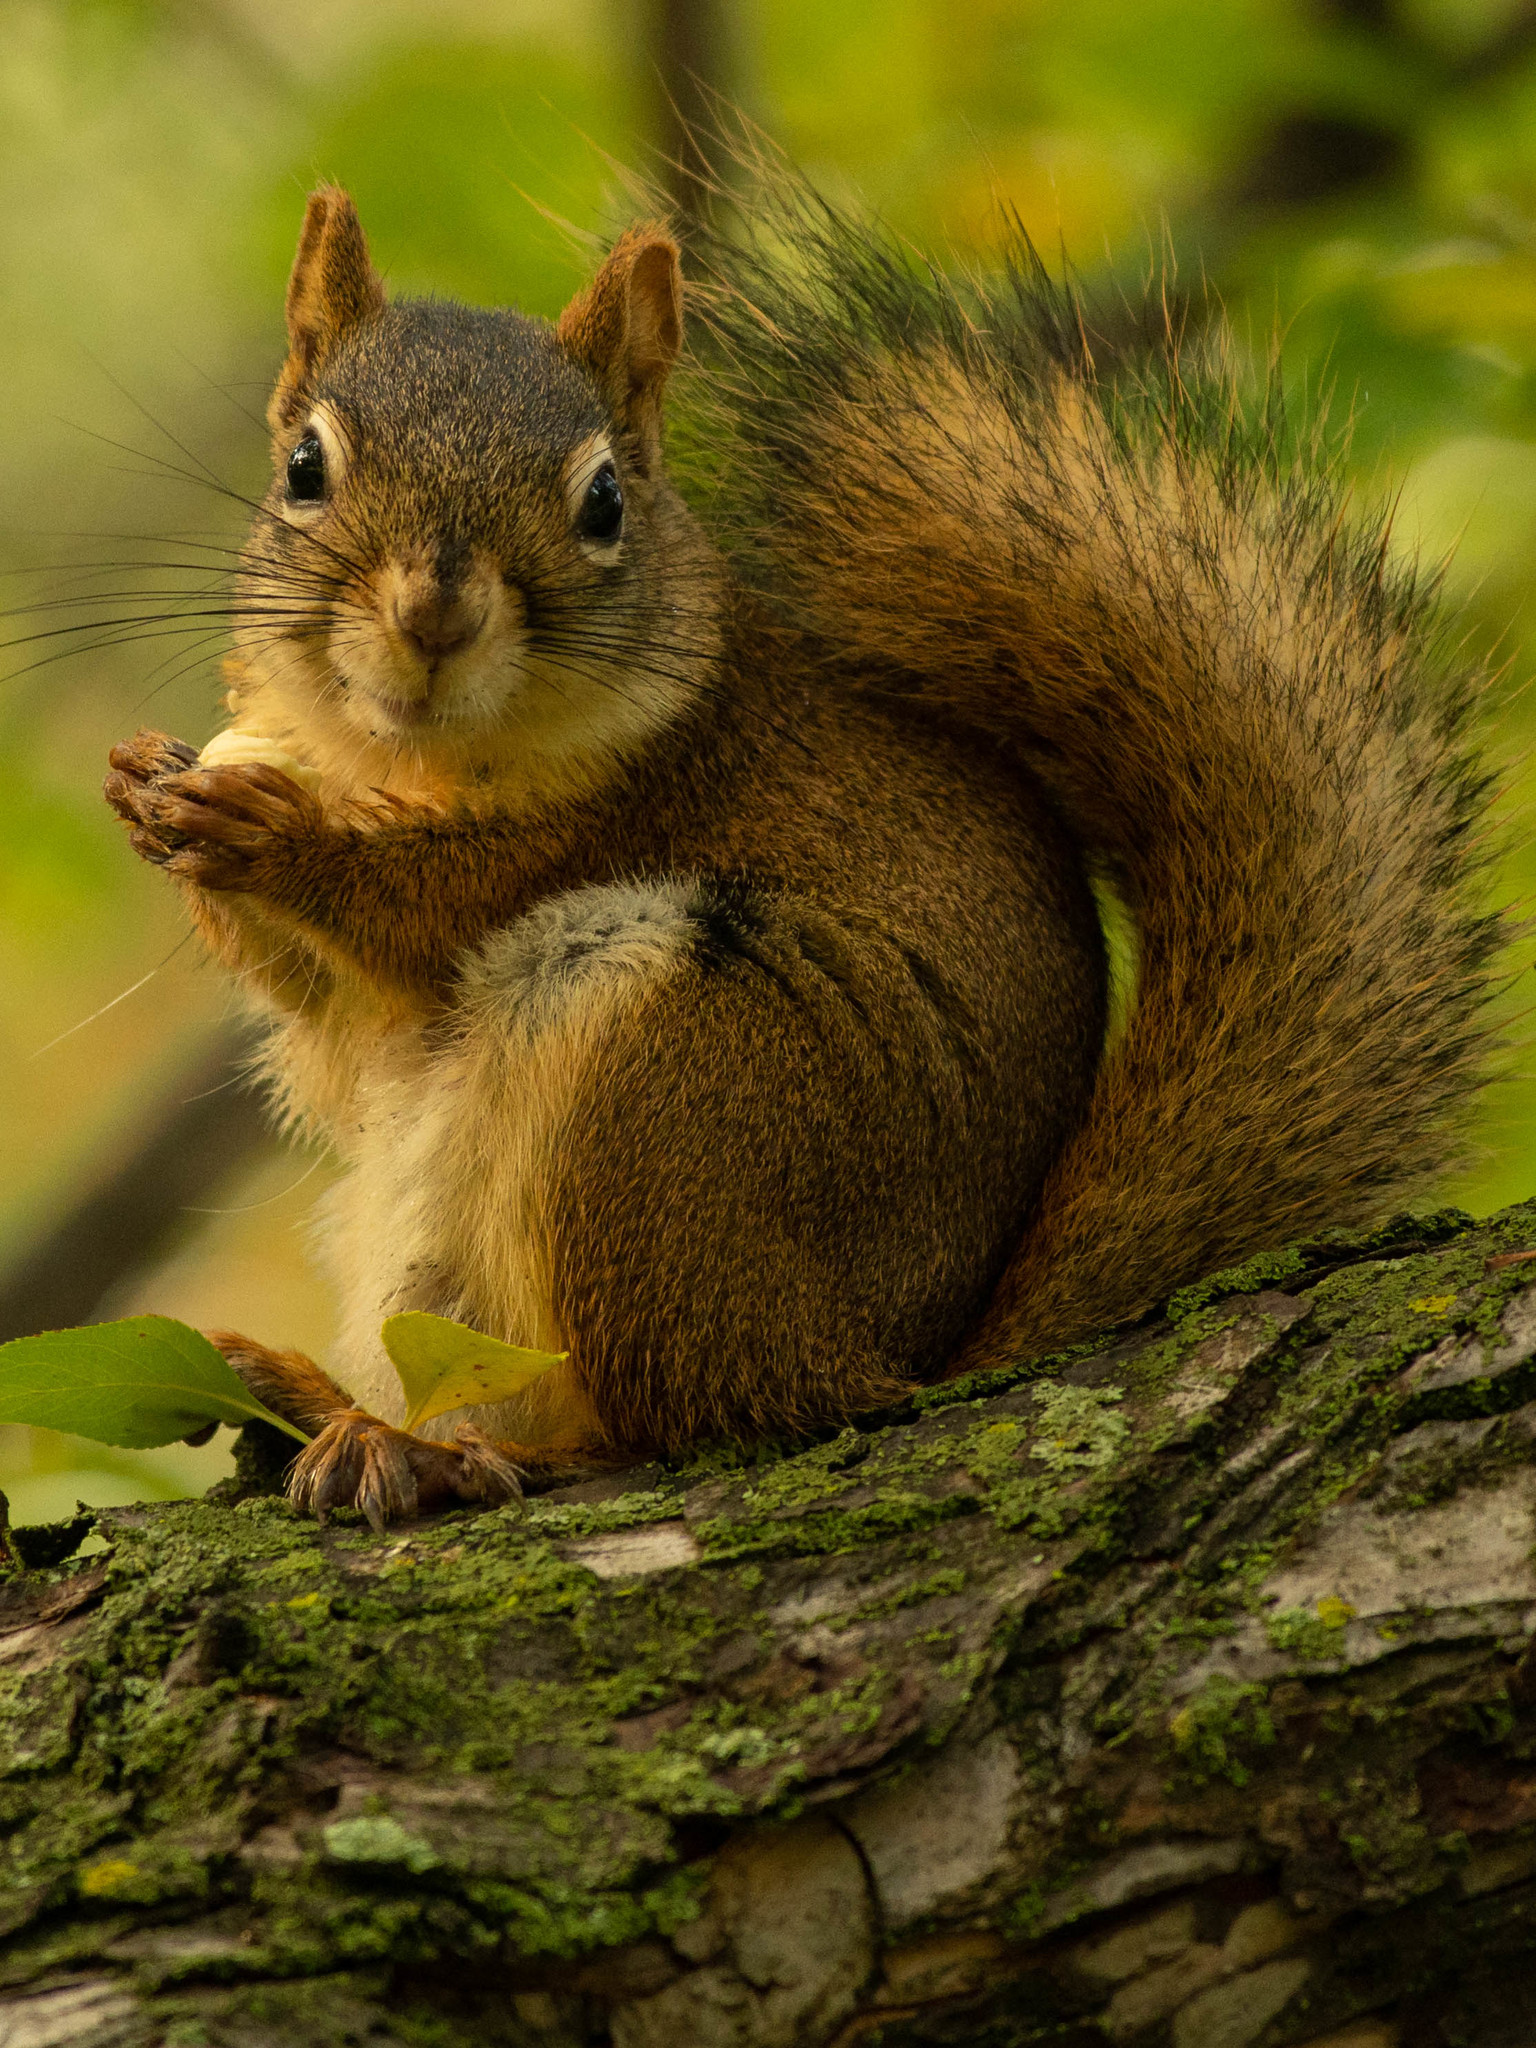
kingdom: Animalia
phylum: Chordata
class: Mammalia
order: Rodentia
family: Sciuridae
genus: Tamiasciurus
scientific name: Tamiasciurus hudsonicus
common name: Red squirrel
